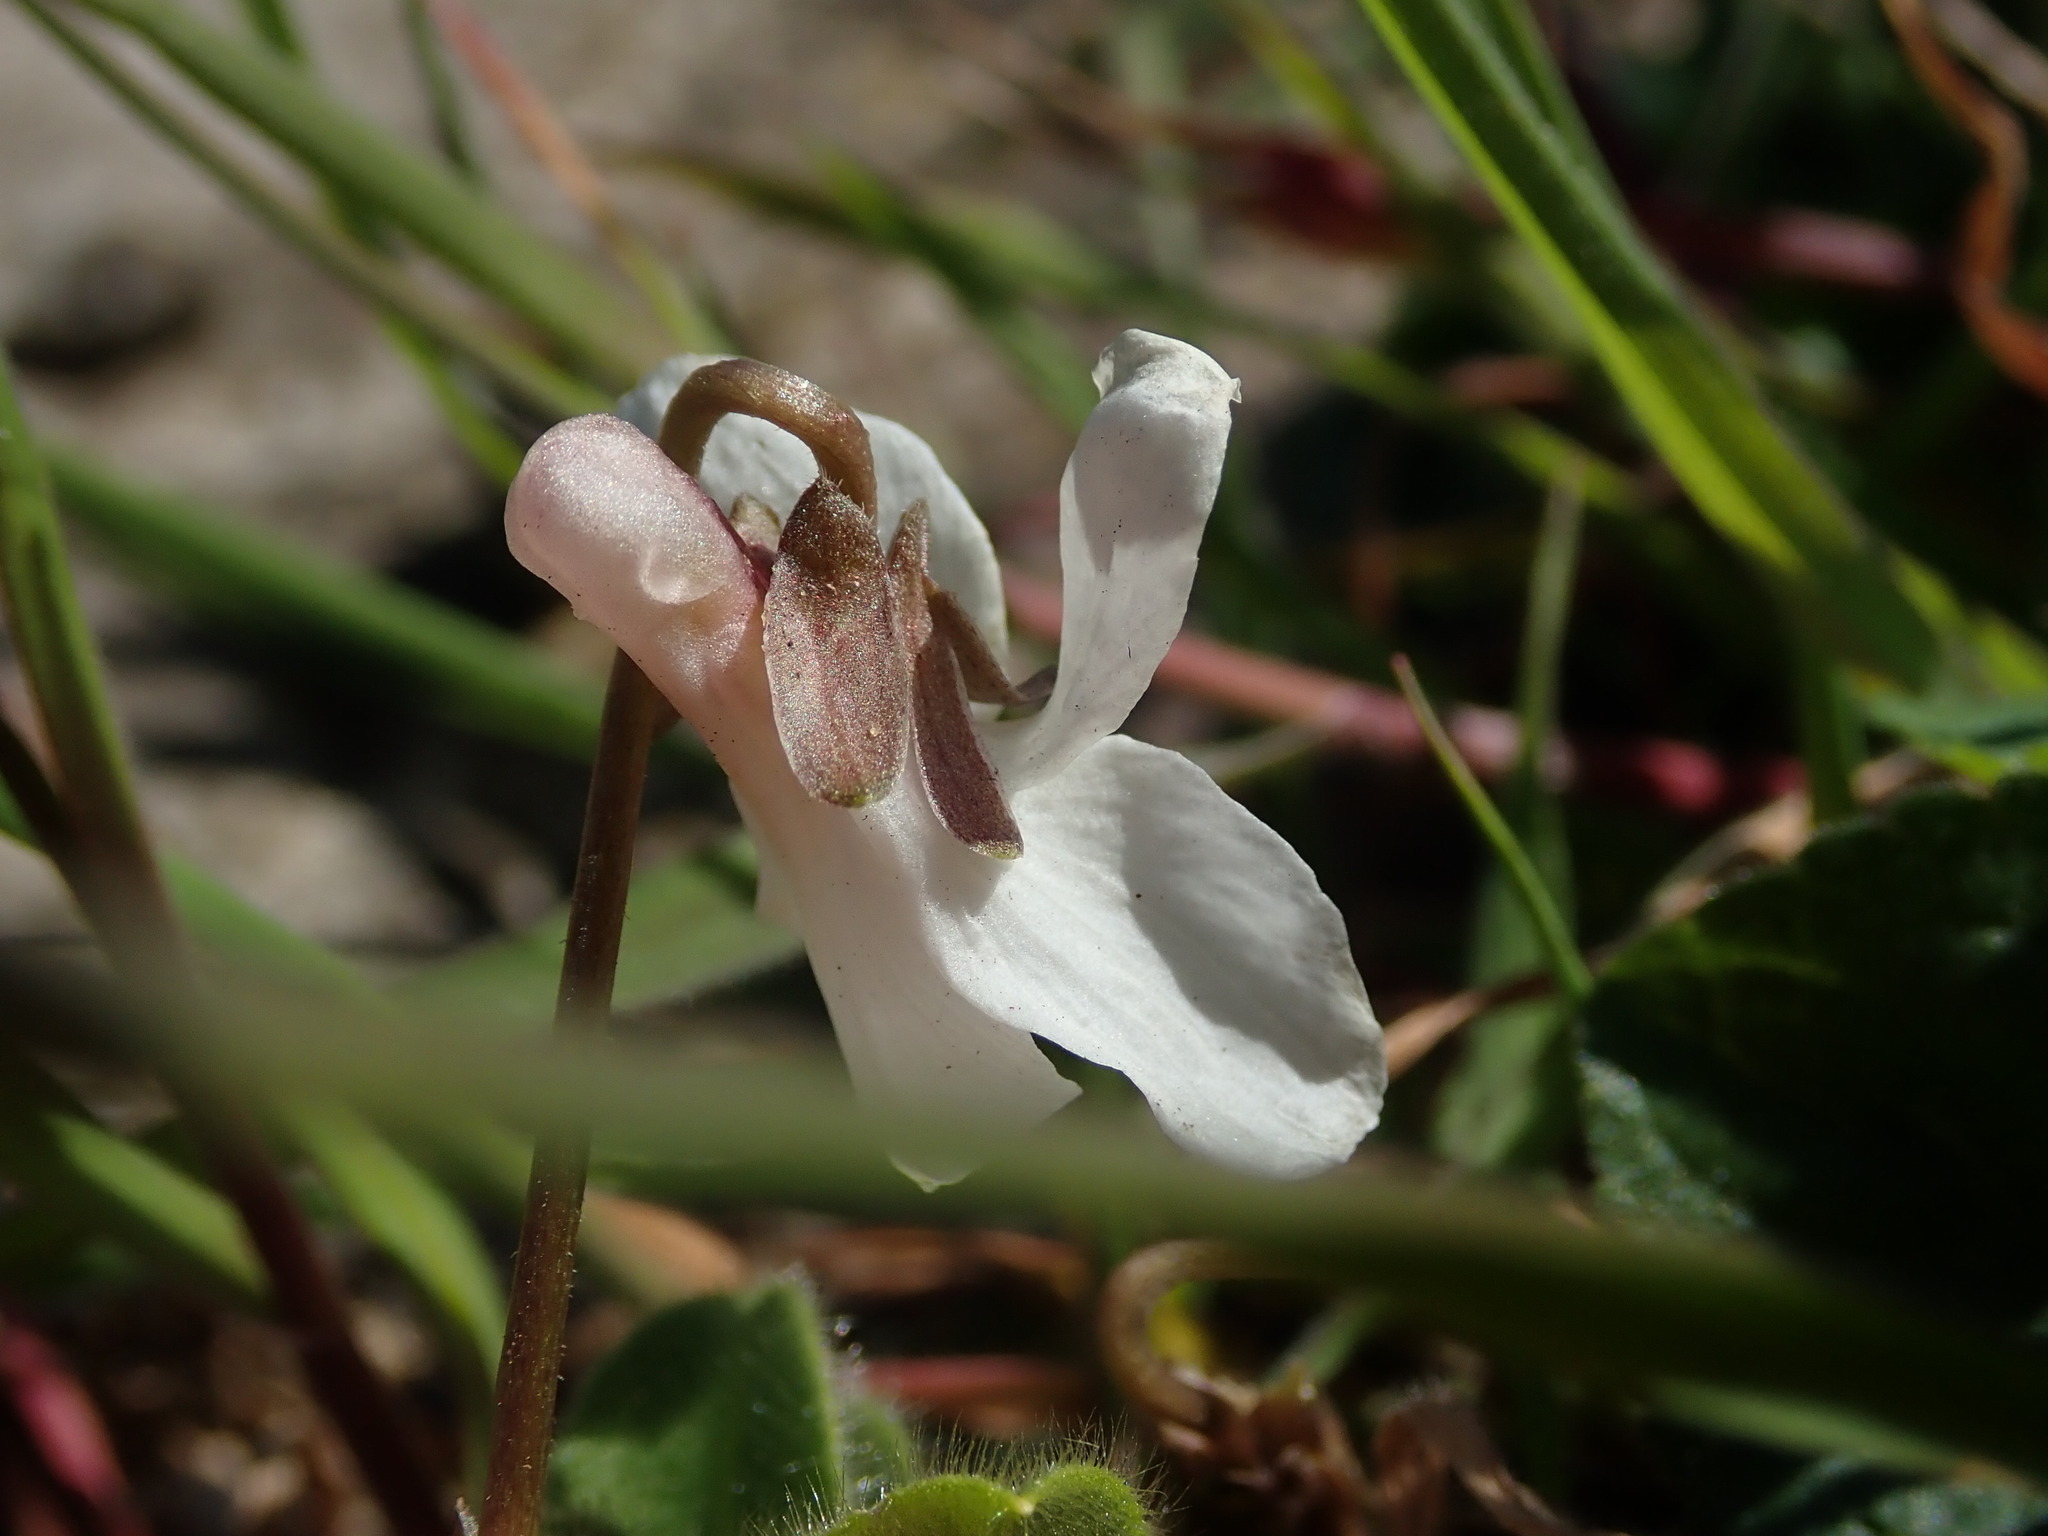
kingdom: Plantae
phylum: Tracheophyta
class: Magnoliopsida
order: Malpighiales
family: Violaceae
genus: Viola
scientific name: Viola odorata
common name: Sweet violet
